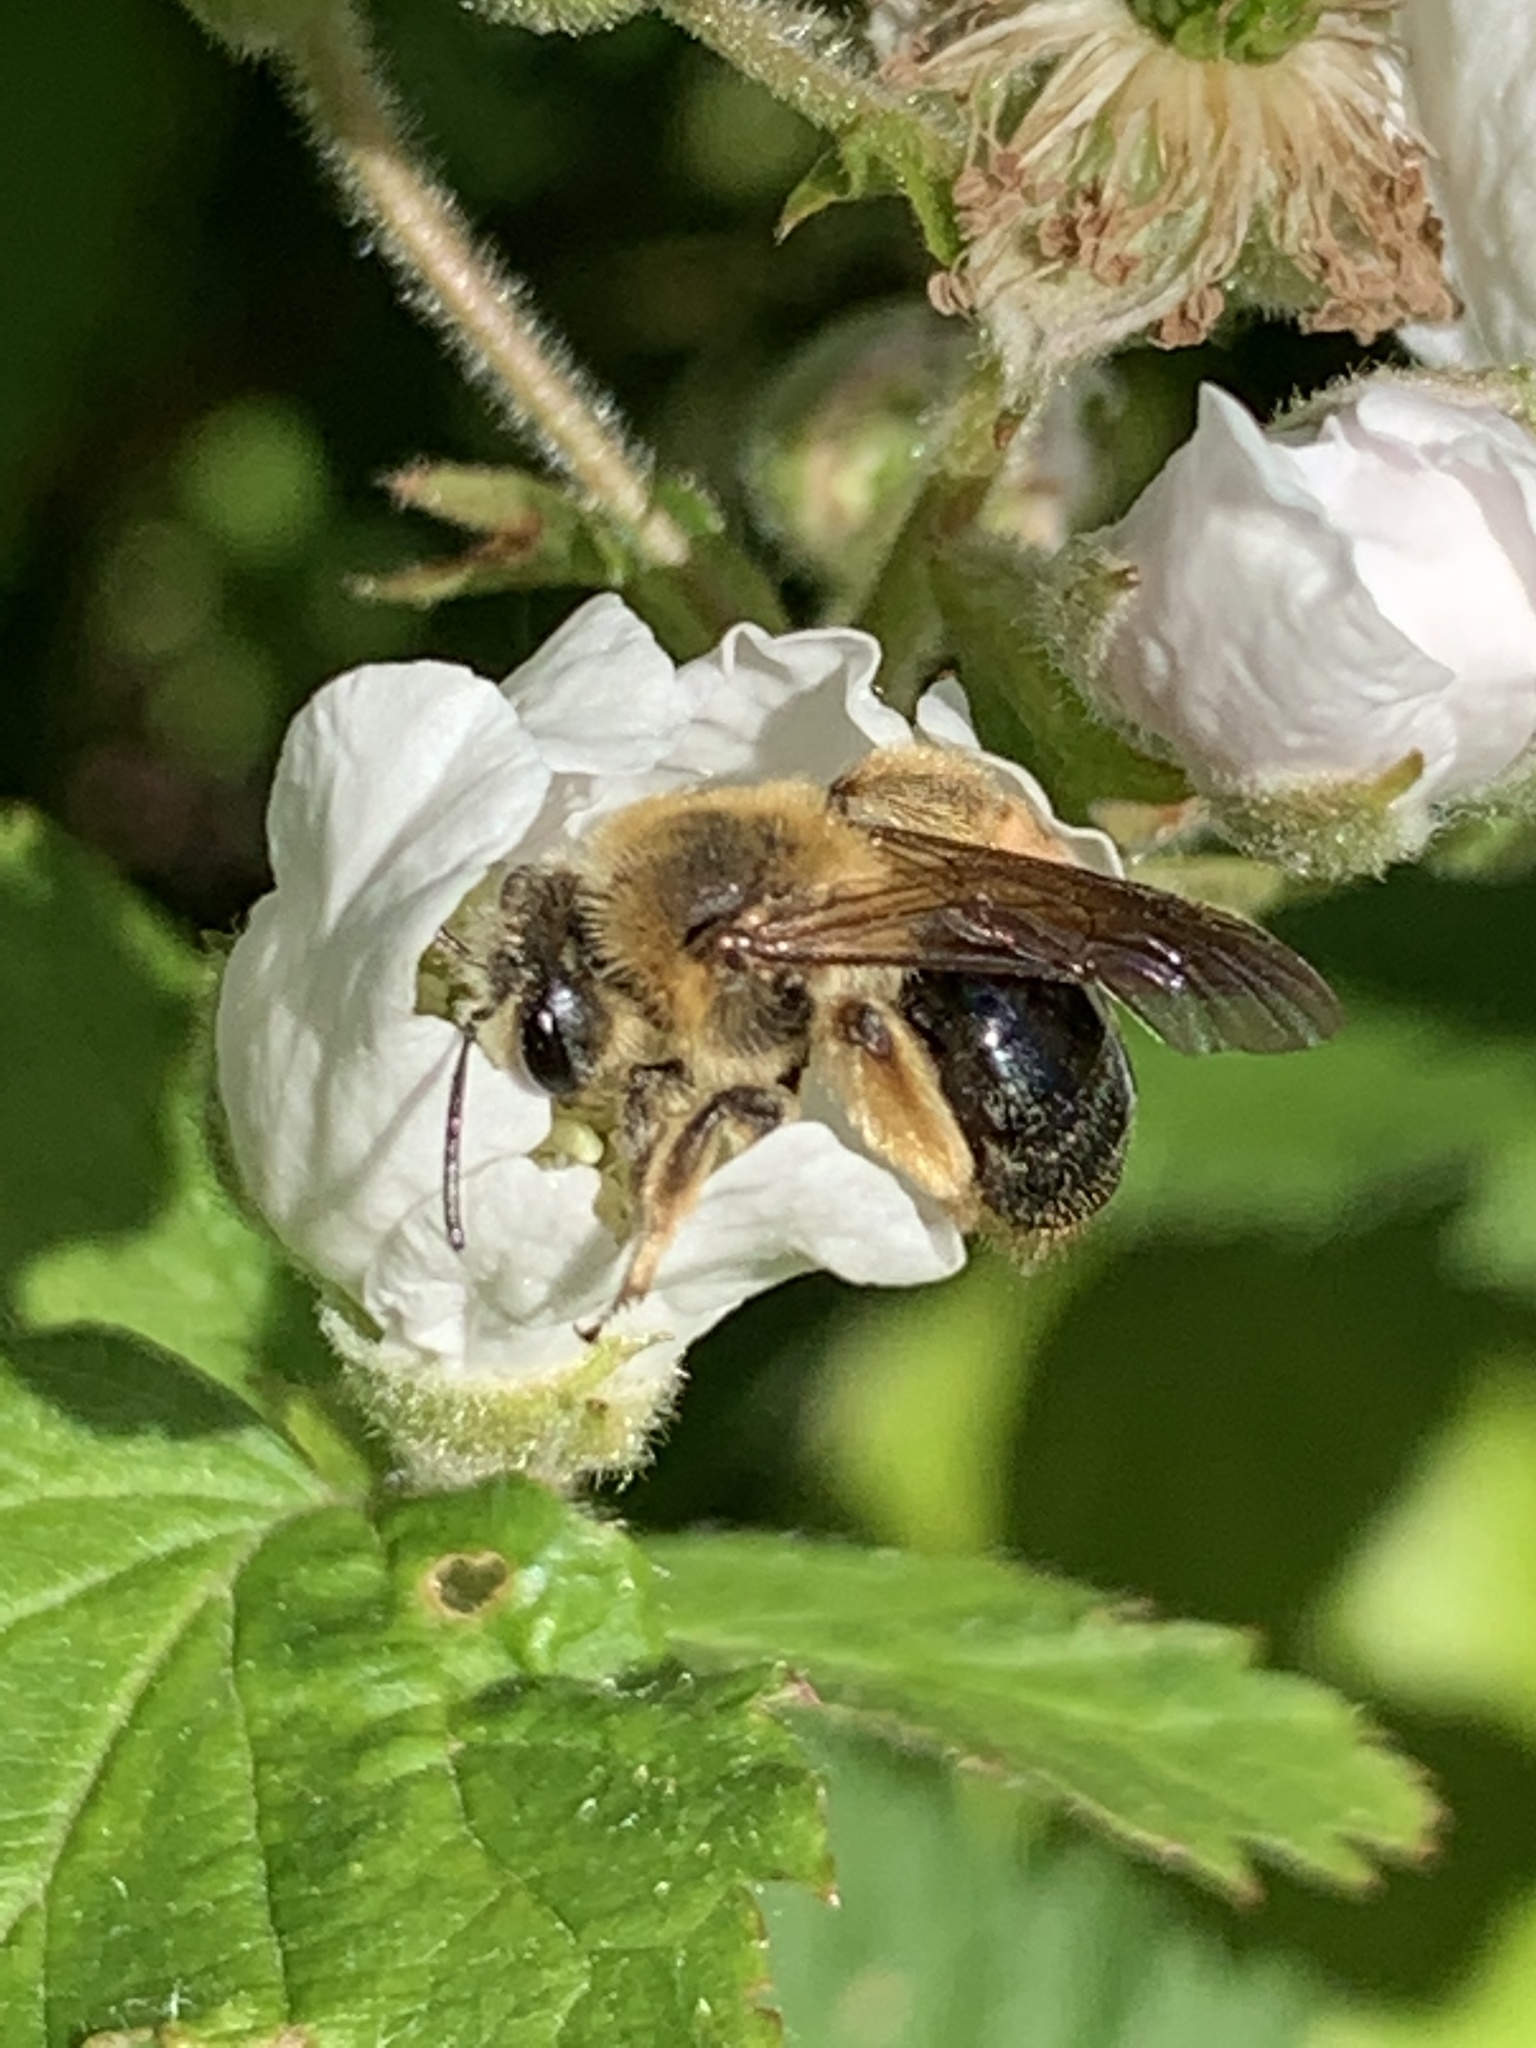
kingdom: Animalia
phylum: Arthropoda
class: Insecta
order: Hymenoptera
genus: Melandrena
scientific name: Melandrena
